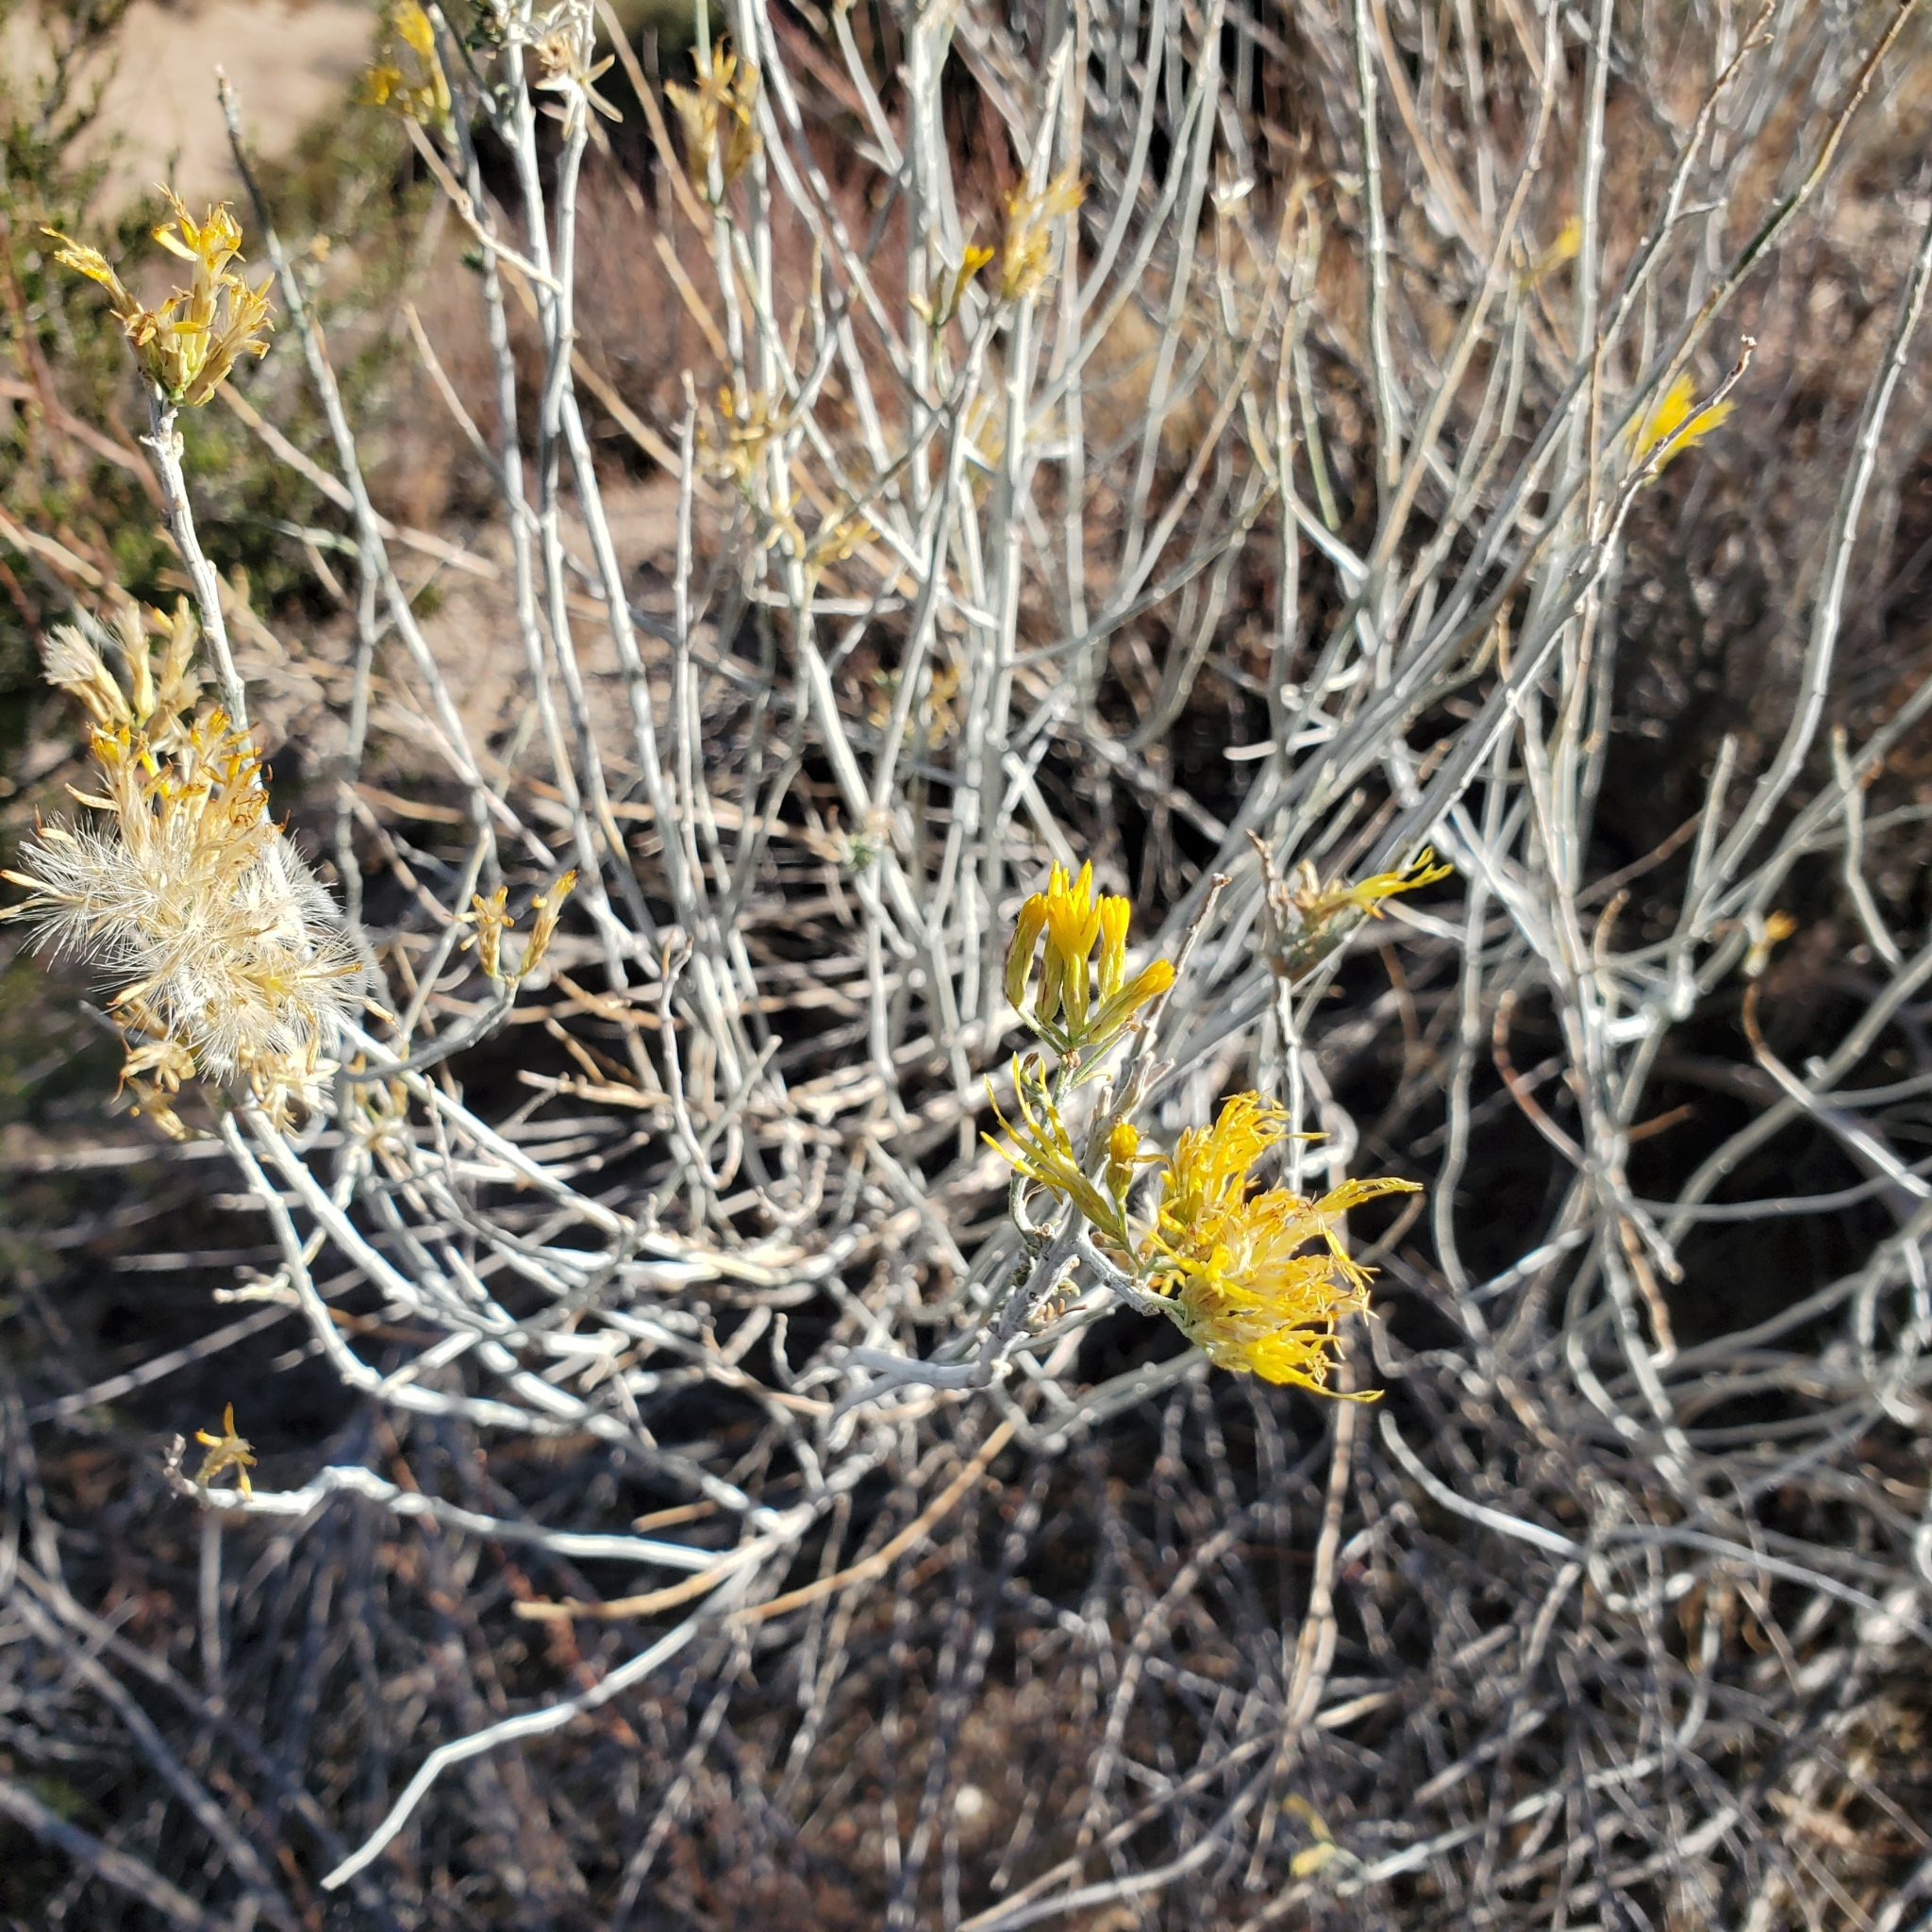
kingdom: Plantae
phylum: Tracheophyta
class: Magnoliopsida
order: Asterales
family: Asteraceae
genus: Ericameria
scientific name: Ericameria nauseosa
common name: Rubber rabbitbrush
